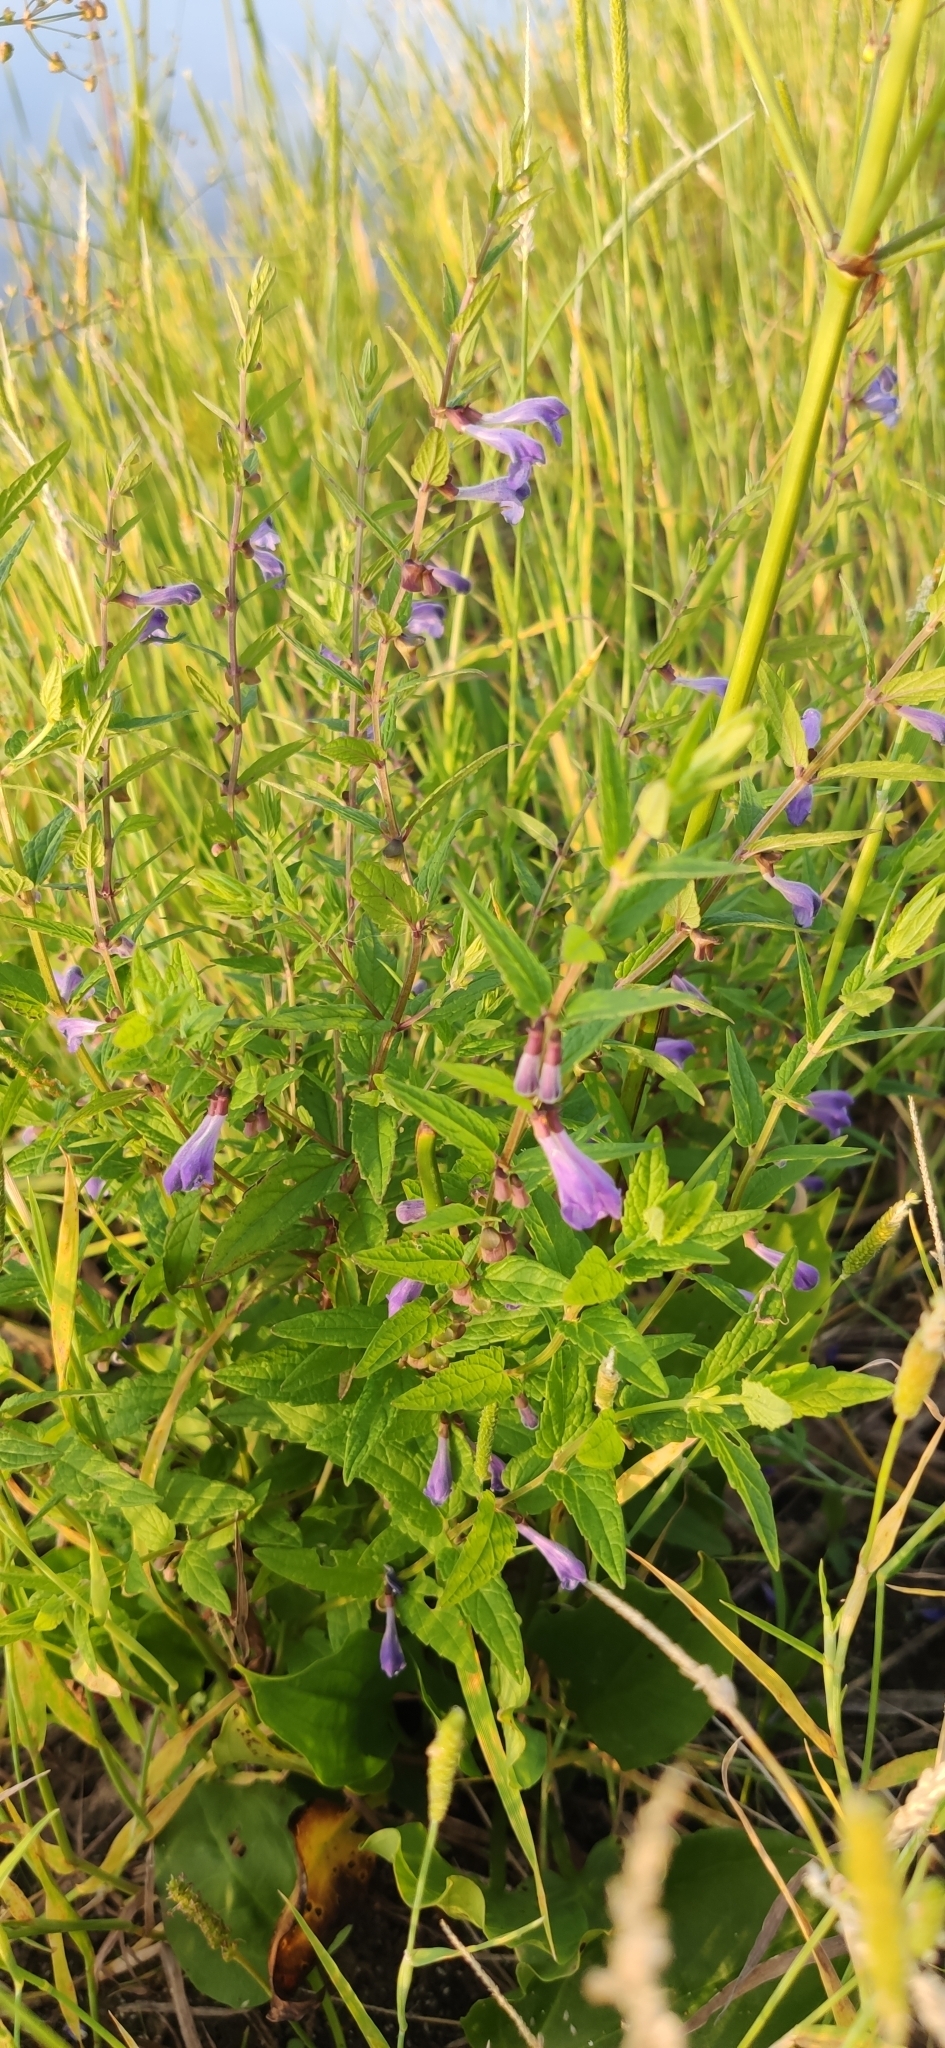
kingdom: Plantae
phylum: Tracheophyta
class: Magnoliopsida
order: Lamiales
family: Lamiaceae
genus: Scutellaria
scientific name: Scutellaria galericulata
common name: Skullcap
